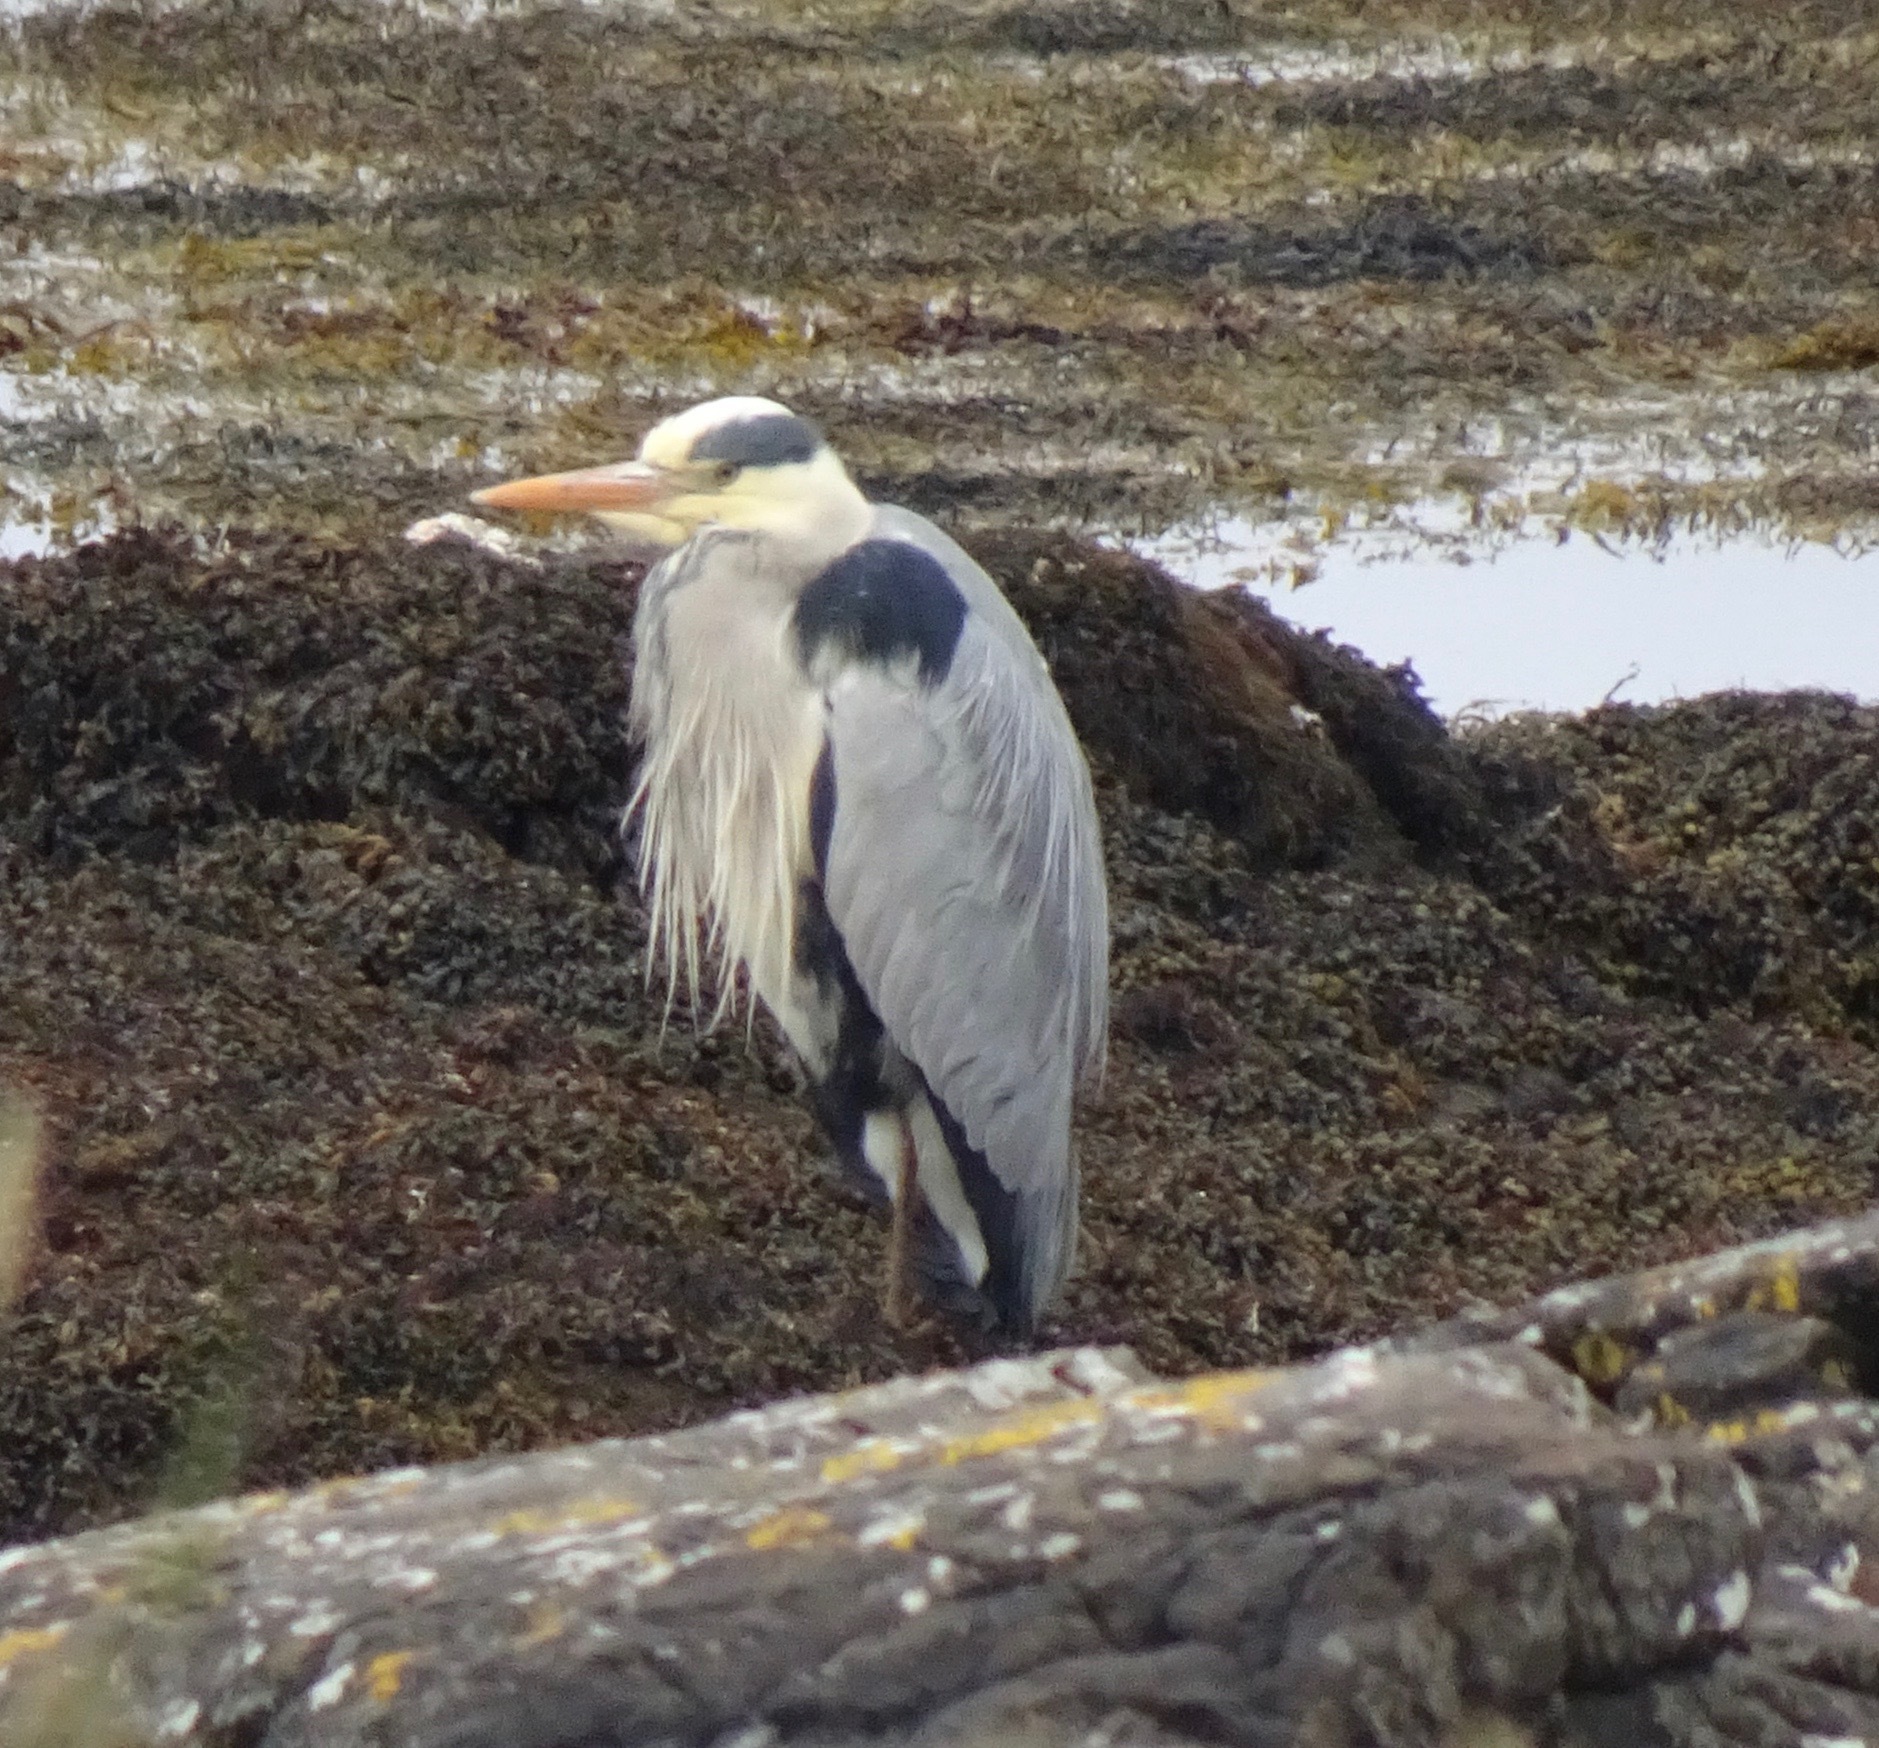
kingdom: Animalia
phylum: Chordata
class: Aves
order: Pelecaniformes
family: Ardeidae
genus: Ardea
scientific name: Ardea cinerea
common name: Grey heron
